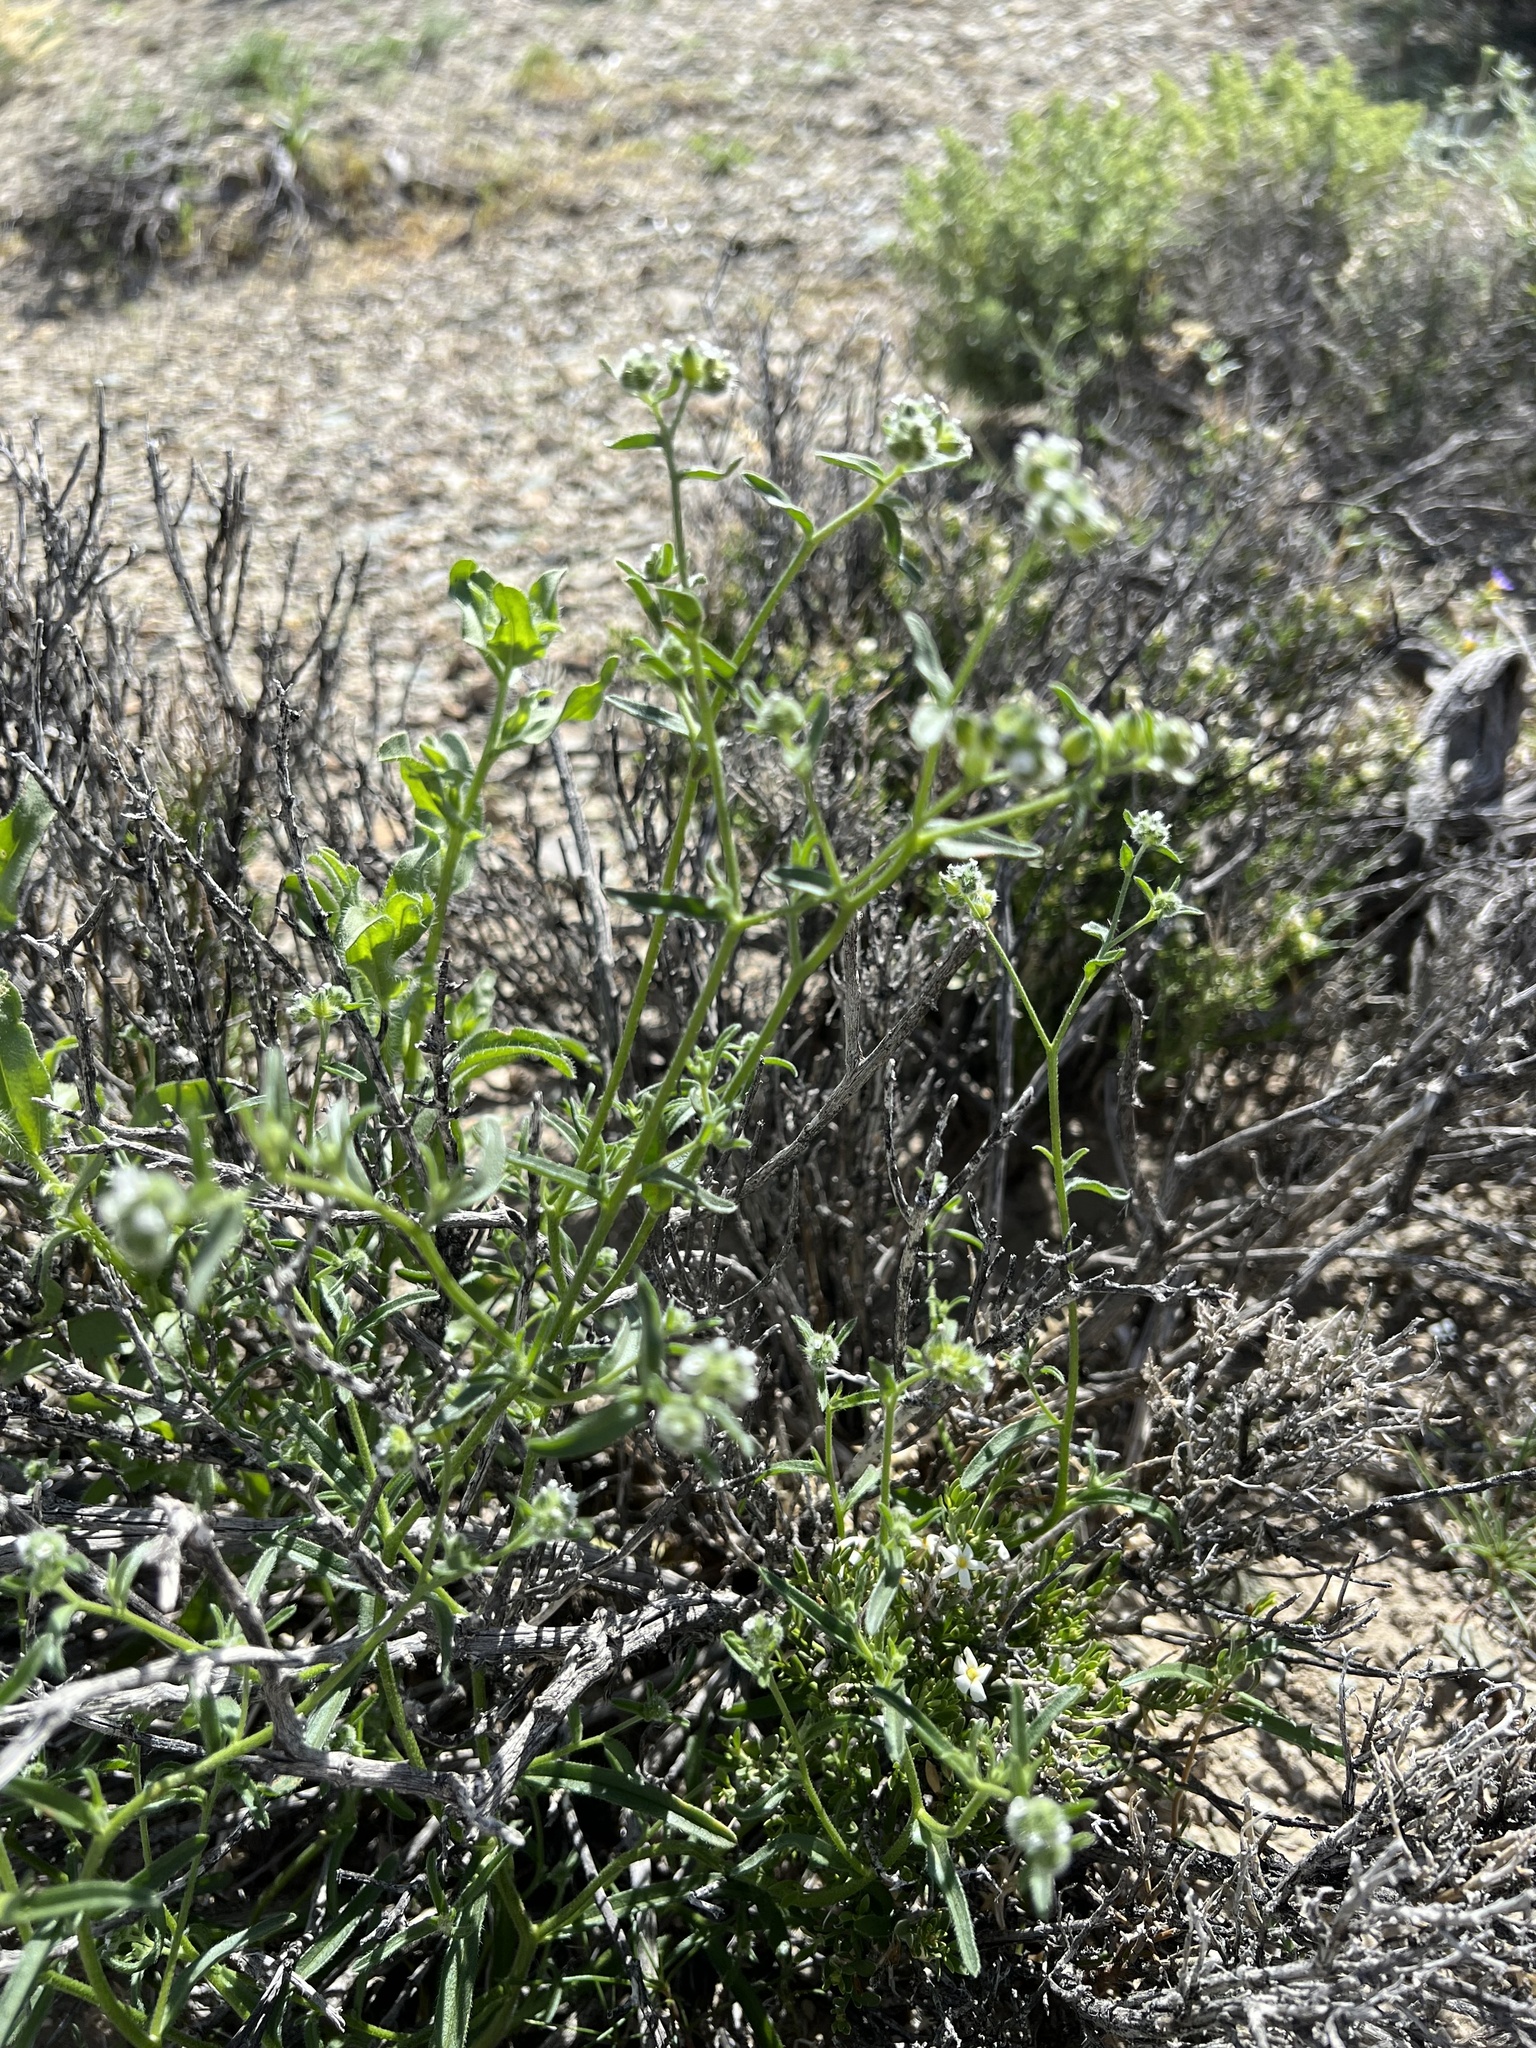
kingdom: Plantae
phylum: Tracheophyta
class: Magnoliopsida
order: Boraginales
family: Boraginaceae
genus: Cryptantha
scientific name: Cryptantha pterocarya
